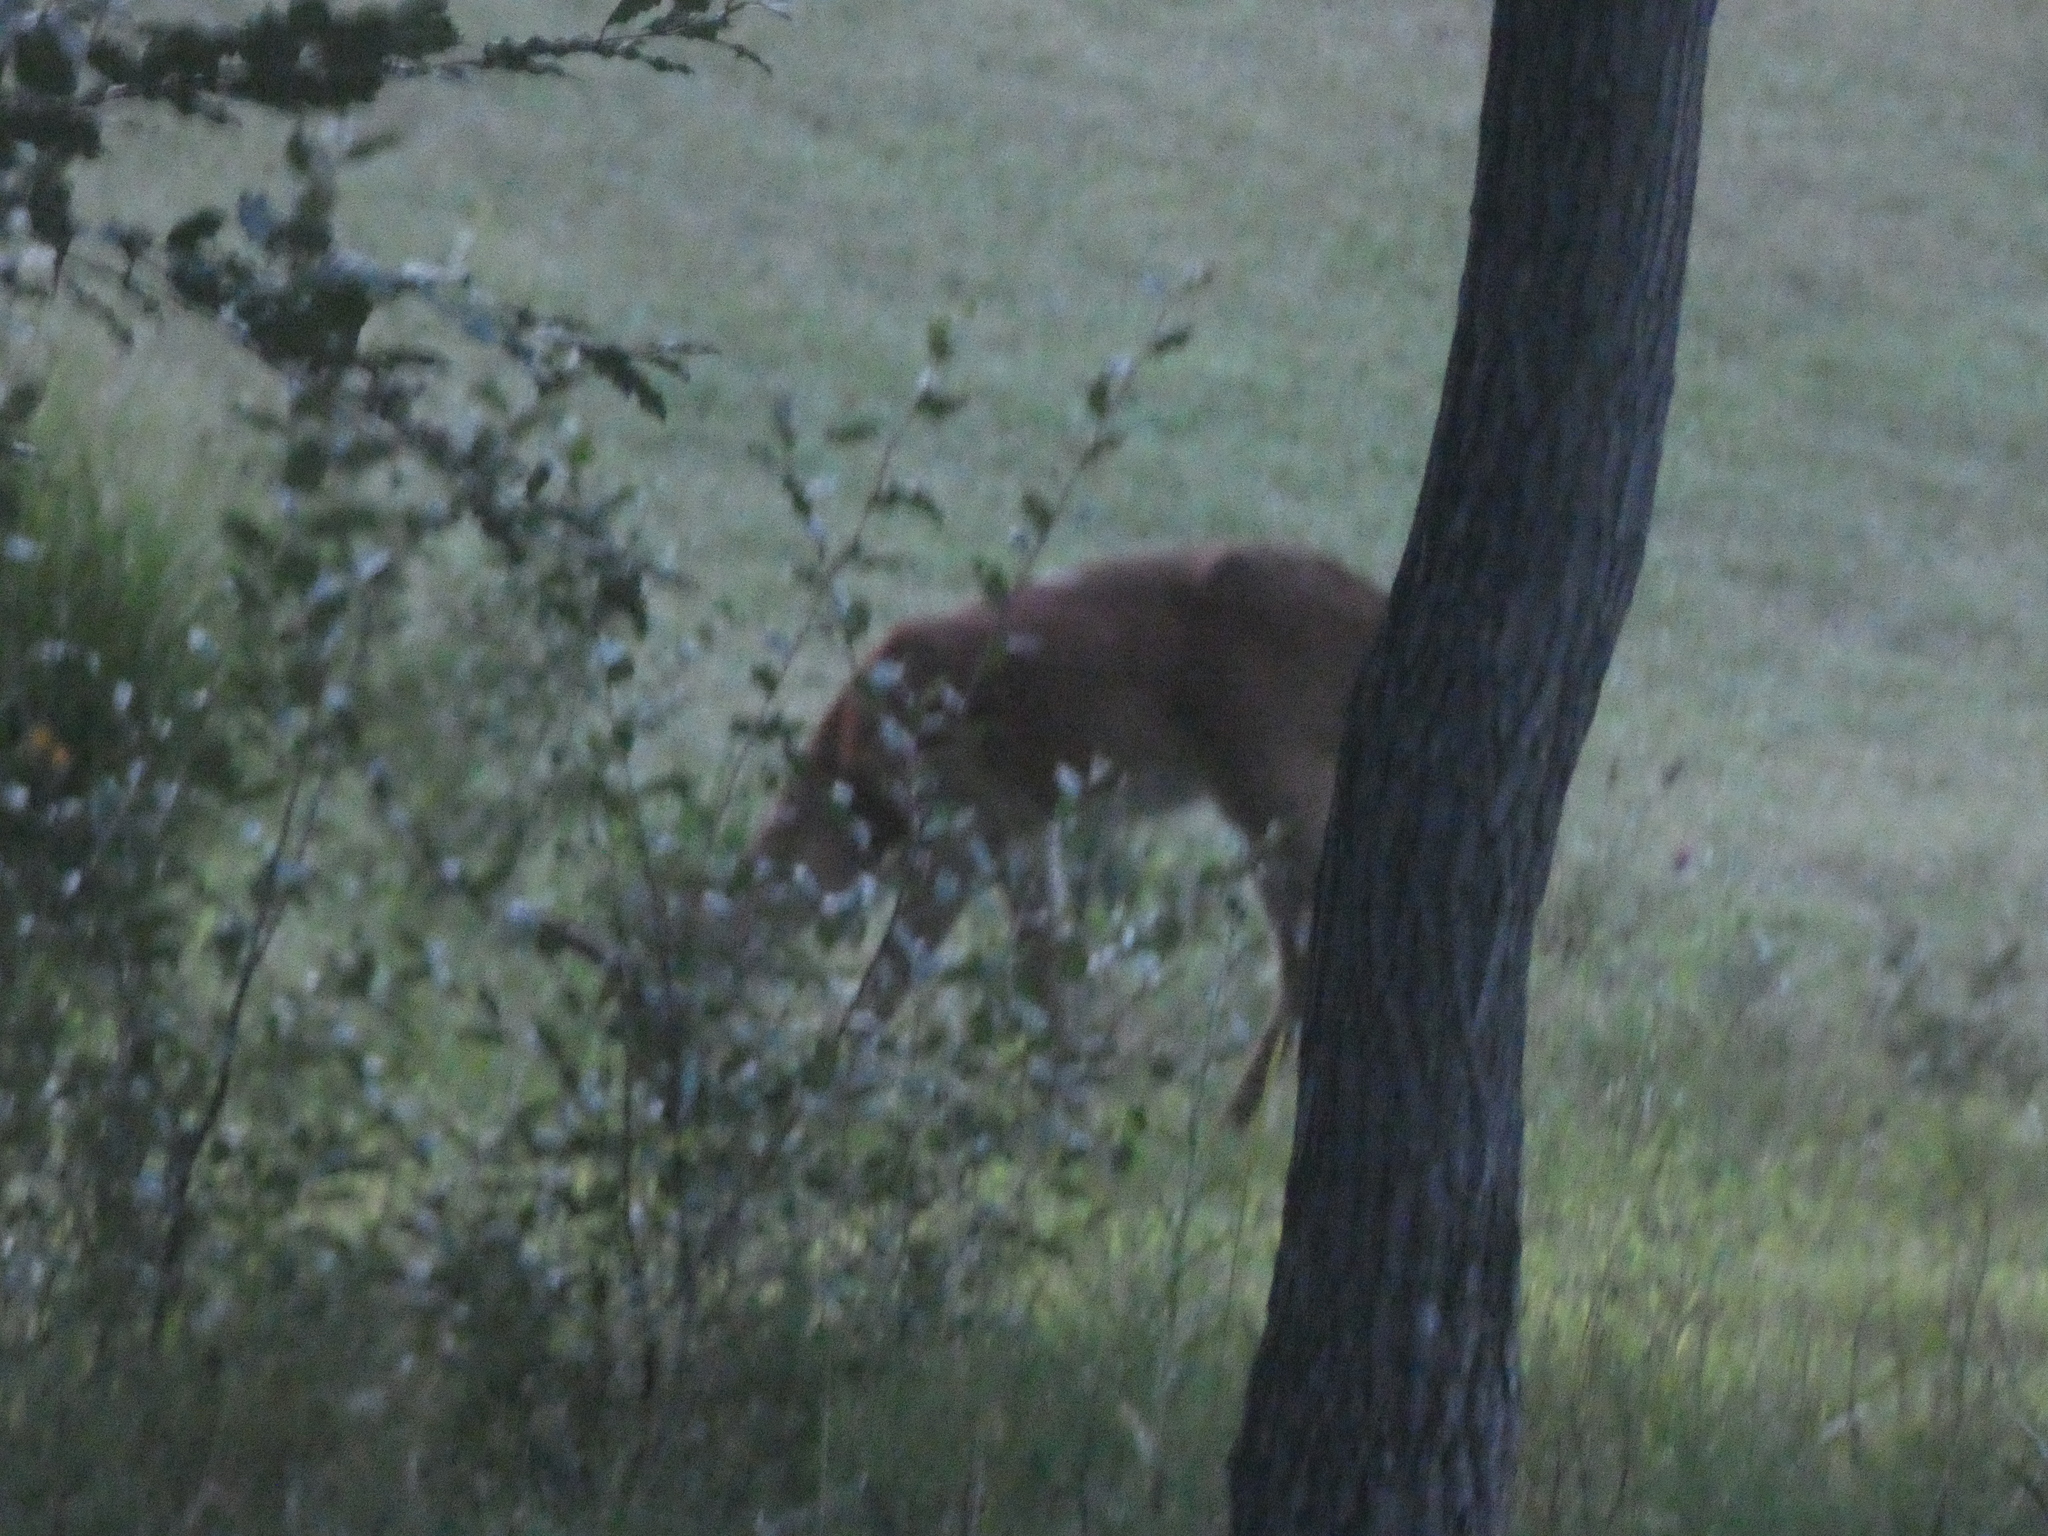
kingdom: Animalia
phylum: Chordata
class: Mammalia
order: Artiodactyla
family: Cervidae
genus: Odocoileus
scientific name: Odocoileus virginianus
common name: White-tailed deer
